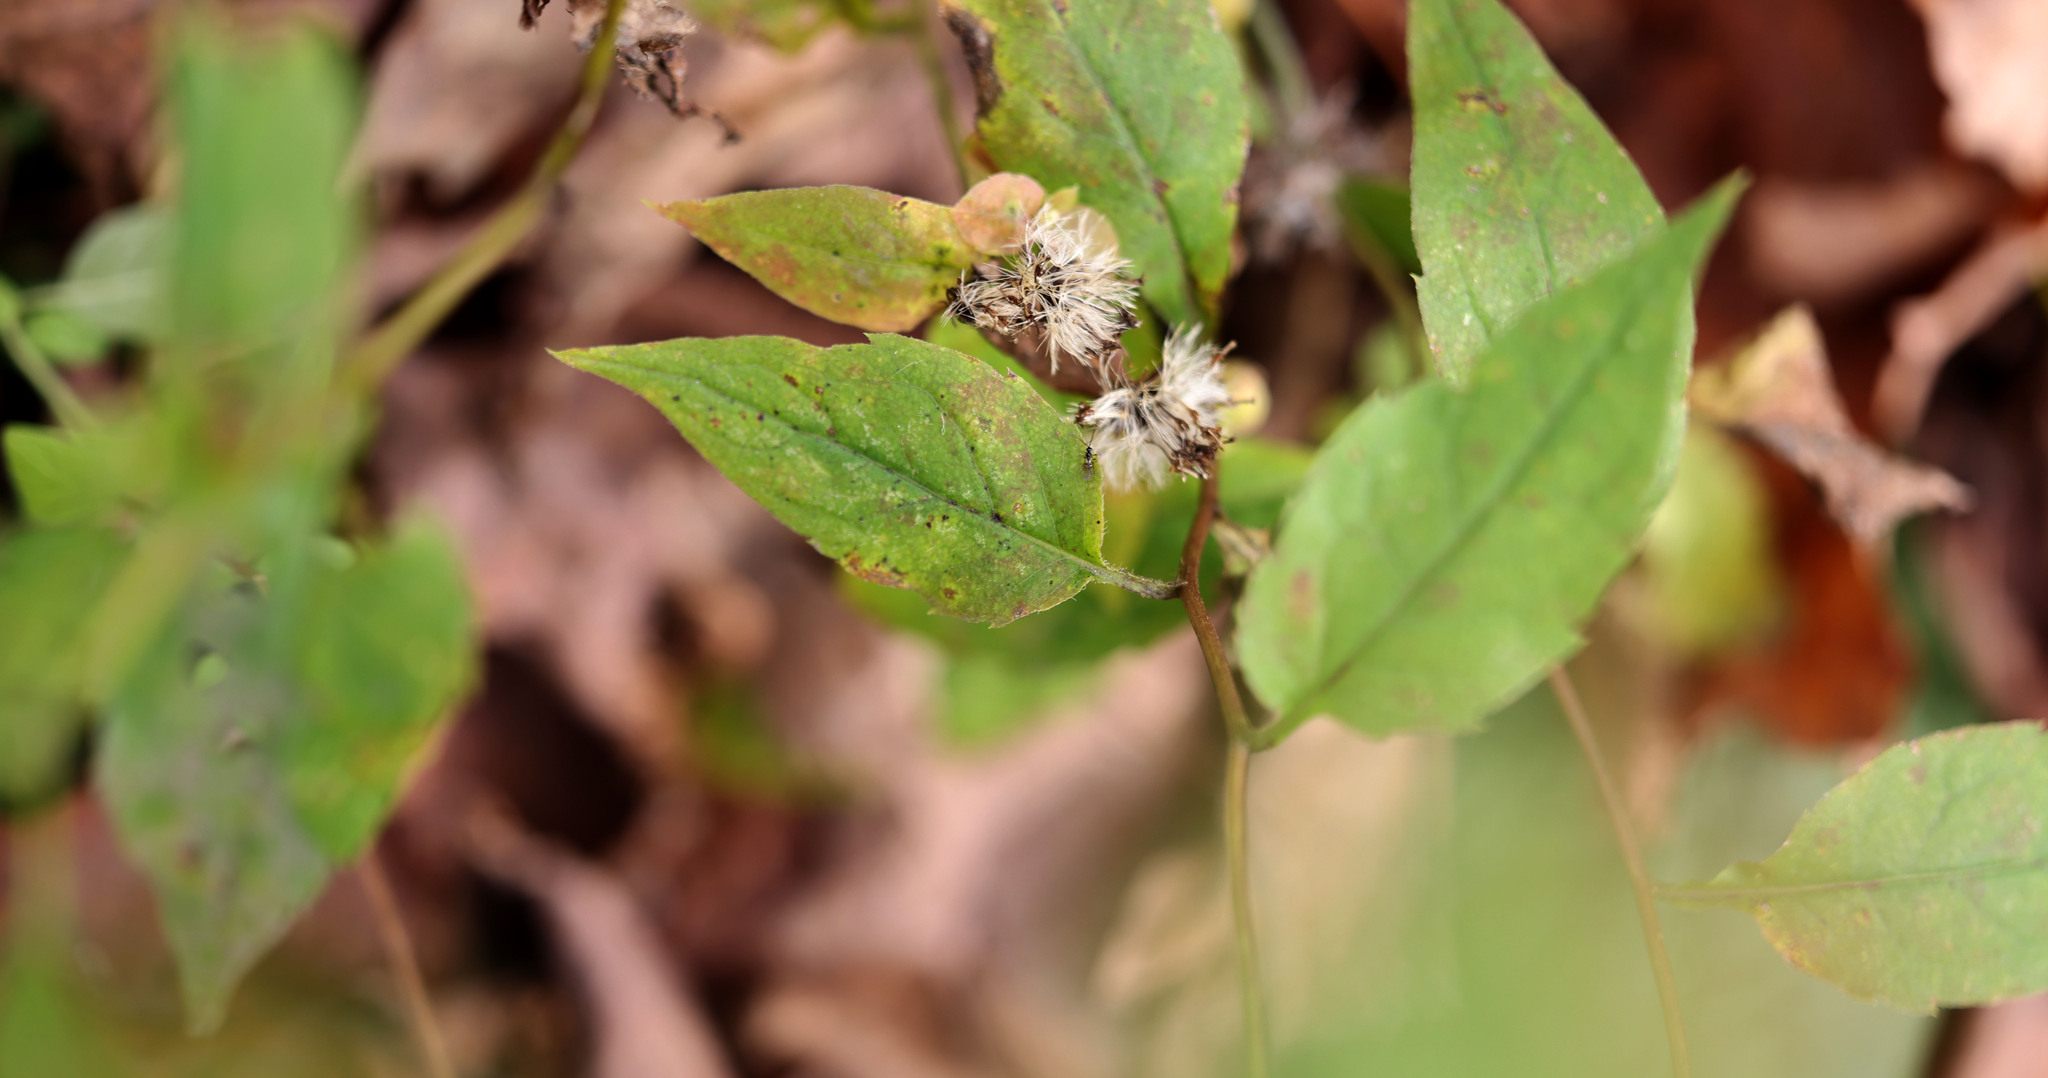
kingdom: Plantae
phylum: Tracheophyta
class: Magnoliopsida
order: Asterales
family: Asteraceae
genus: Eurybia
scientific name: Eurybia divaricata
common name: White wood aster
